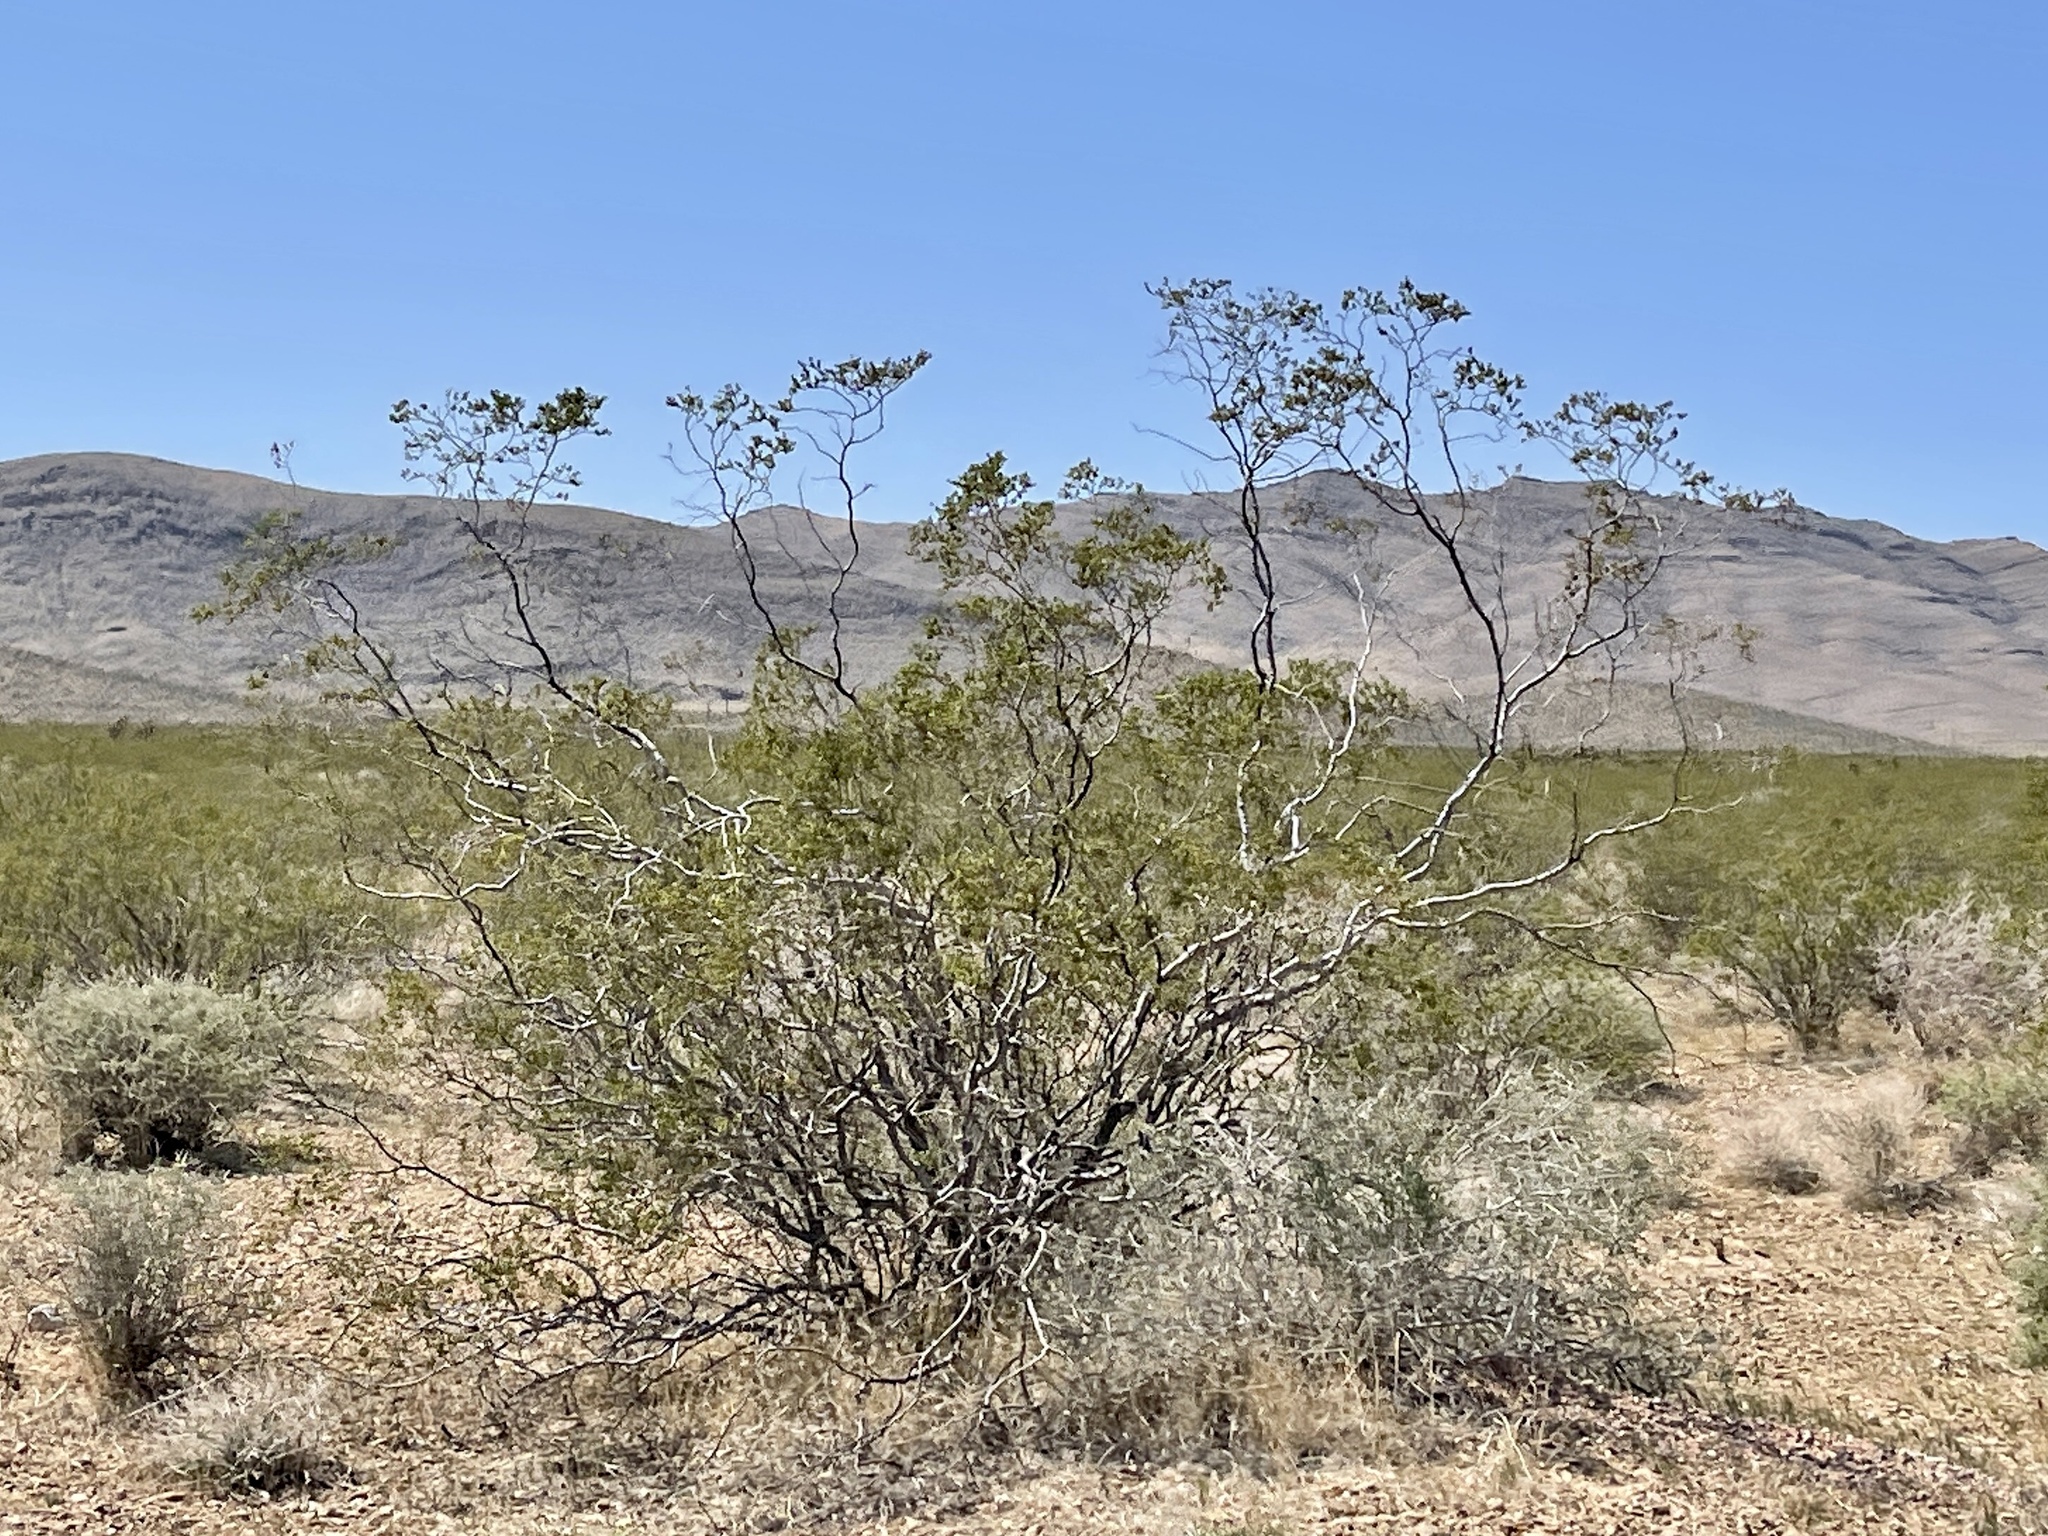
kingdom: Plantae
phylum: Tracheophyta
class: Magnoliopsida
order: Zygophyllales
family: Zygophyllaceae
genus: Larrea
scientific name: Larrea tridentata
